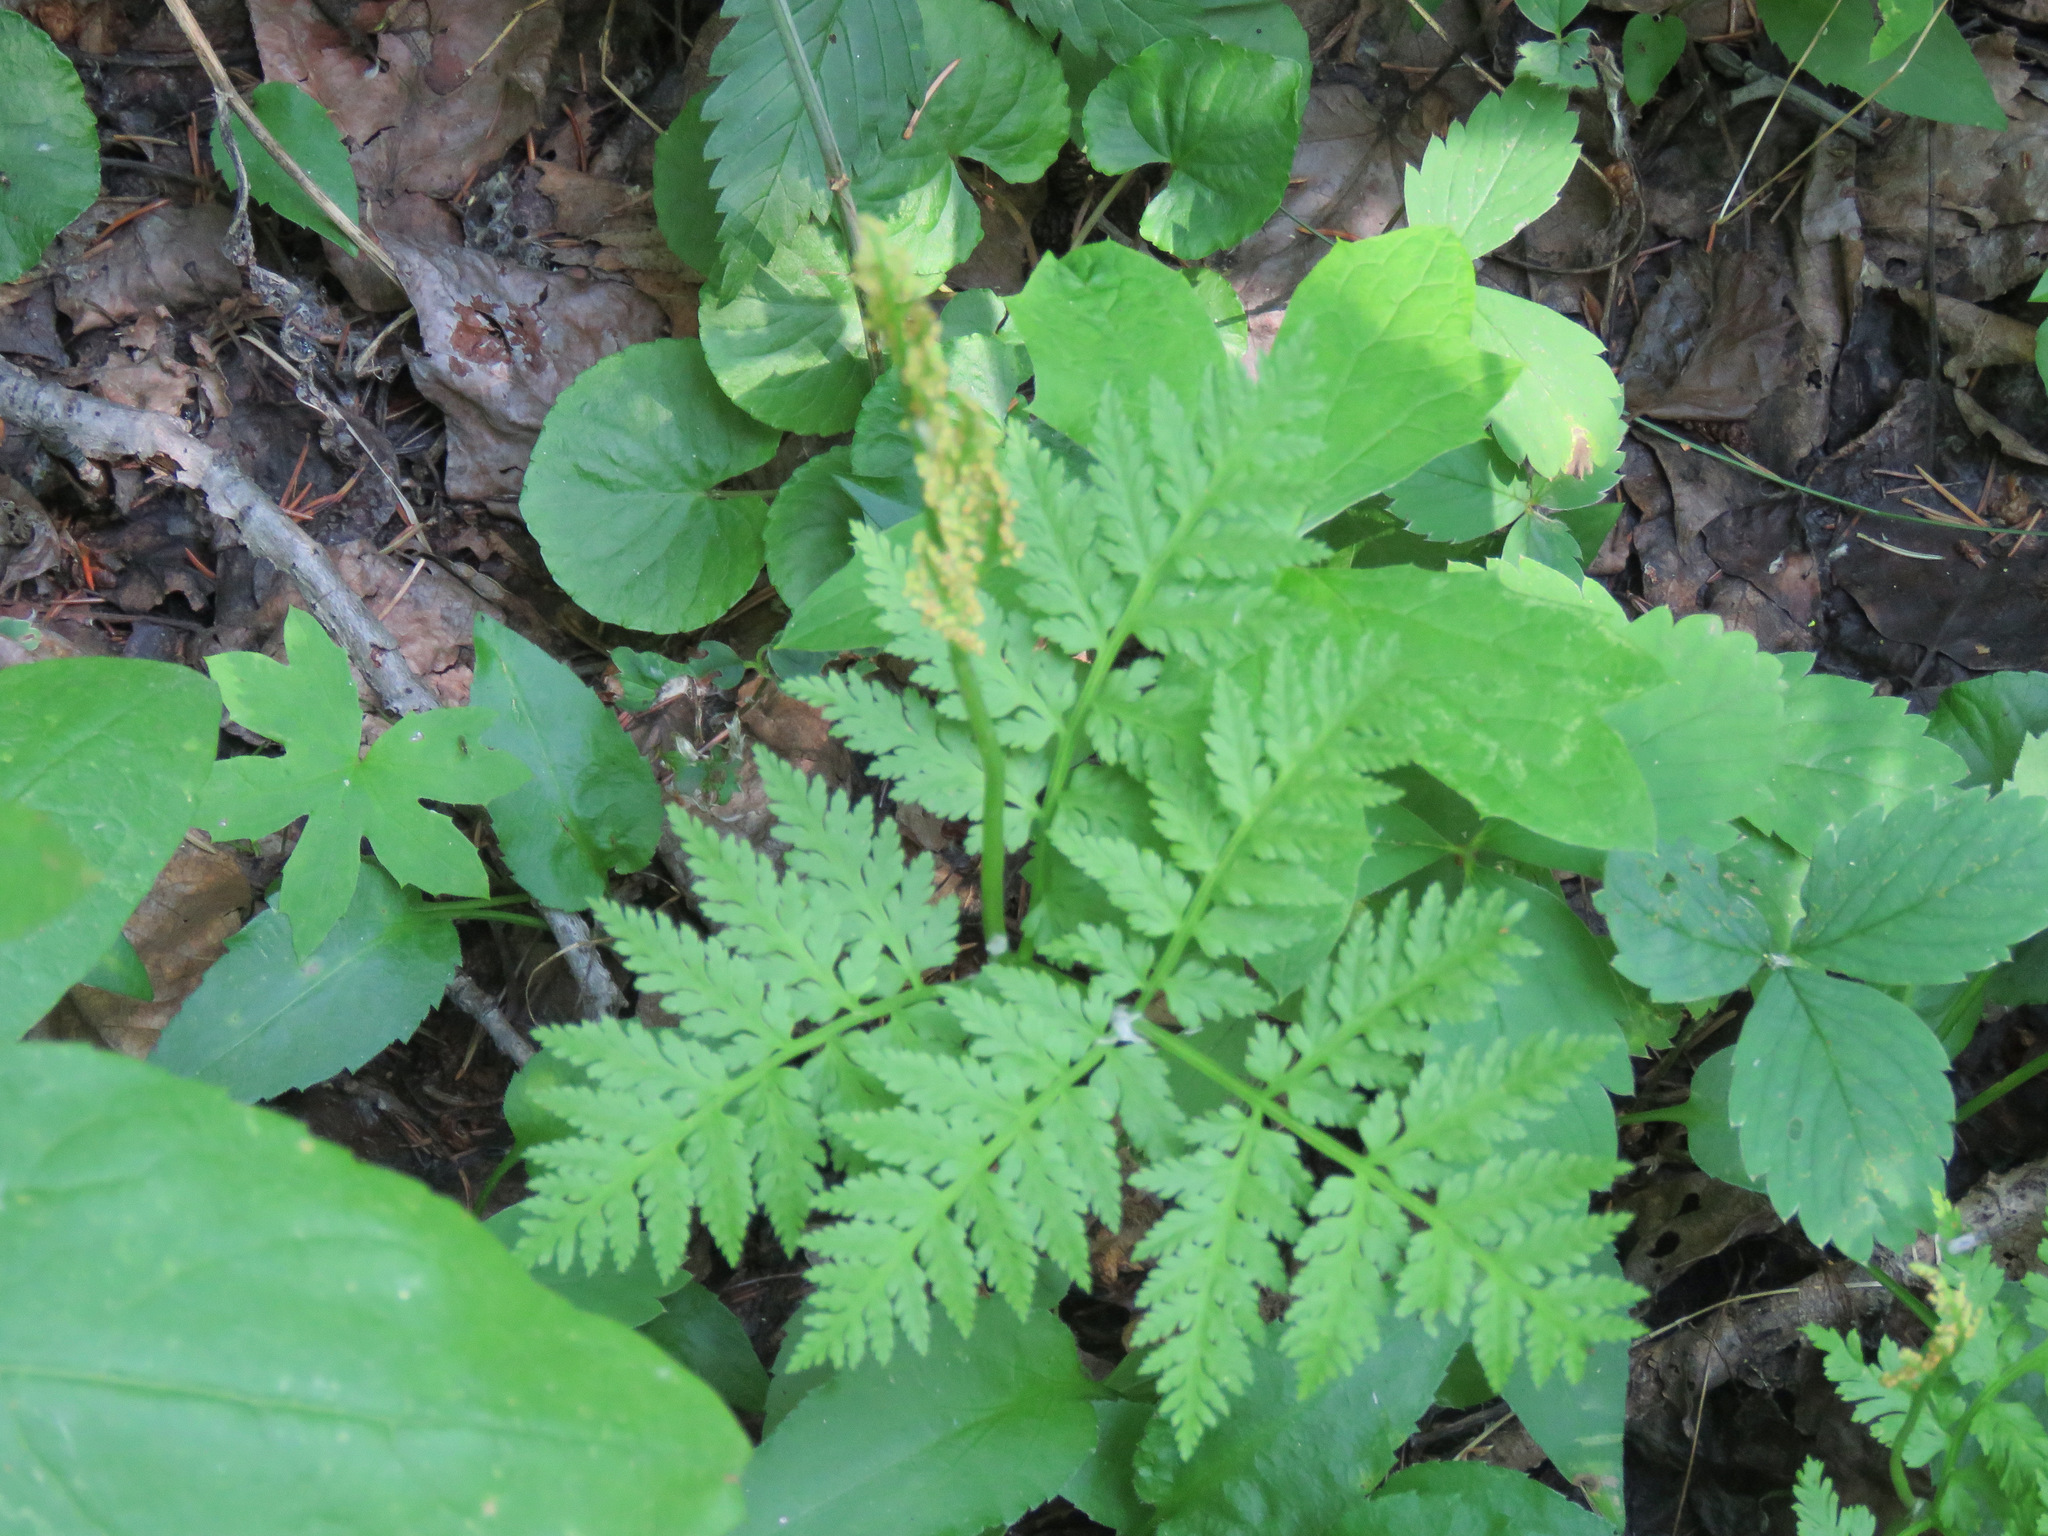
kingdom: Plantae
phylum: Tracheophyta
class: Polypodiopsida
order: Ophioglossales
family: Ophioglossaceae
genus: Botrypus
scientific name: Botrypus virginianus
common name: Common grapefern
